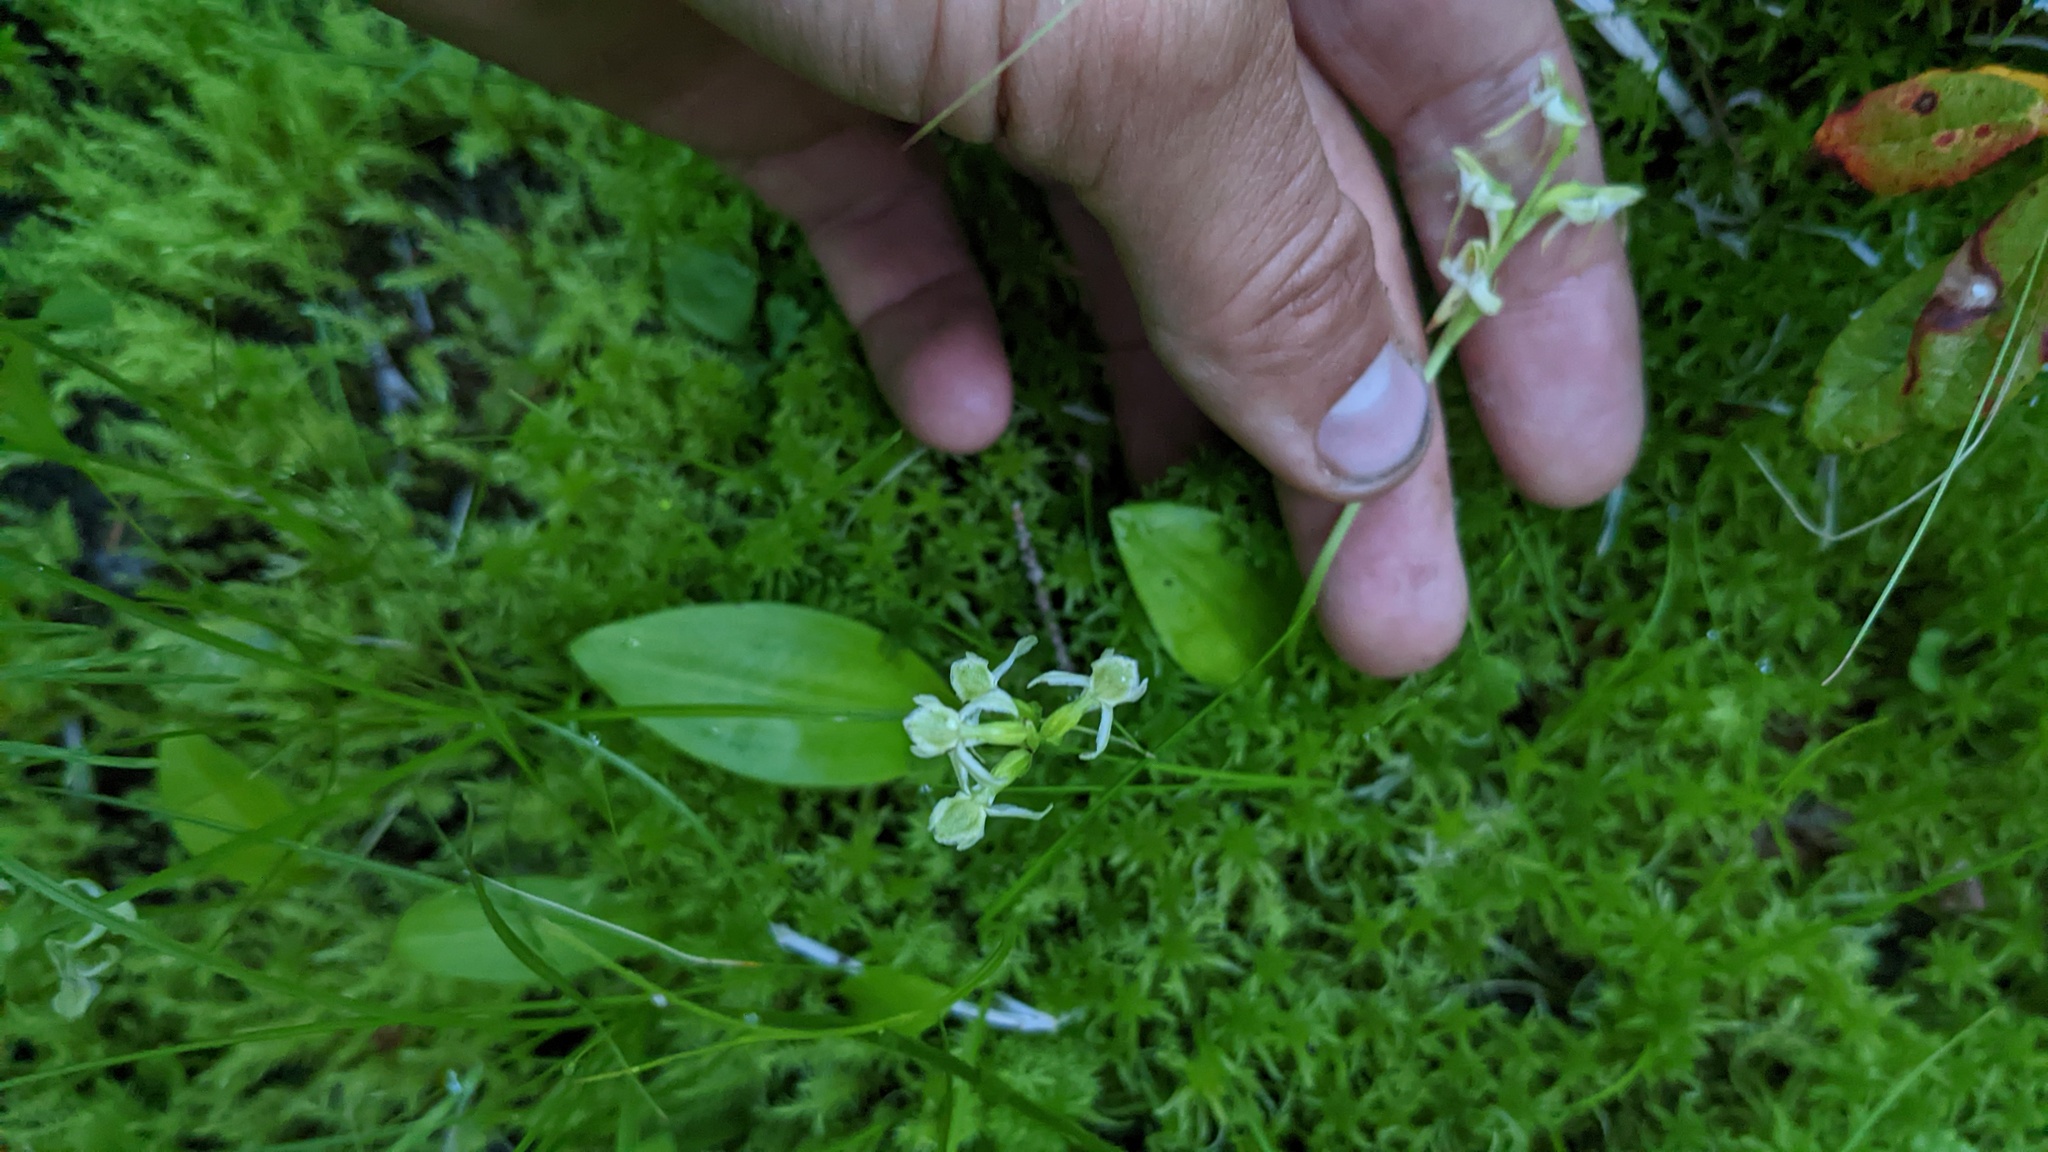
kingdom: Plantae
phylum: Tracheophyta
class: Liliopsida
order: Asparagales
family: Orchidaceae
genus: Platanthera
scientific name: Platanthera obtusata
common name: Blunt bog orchid
